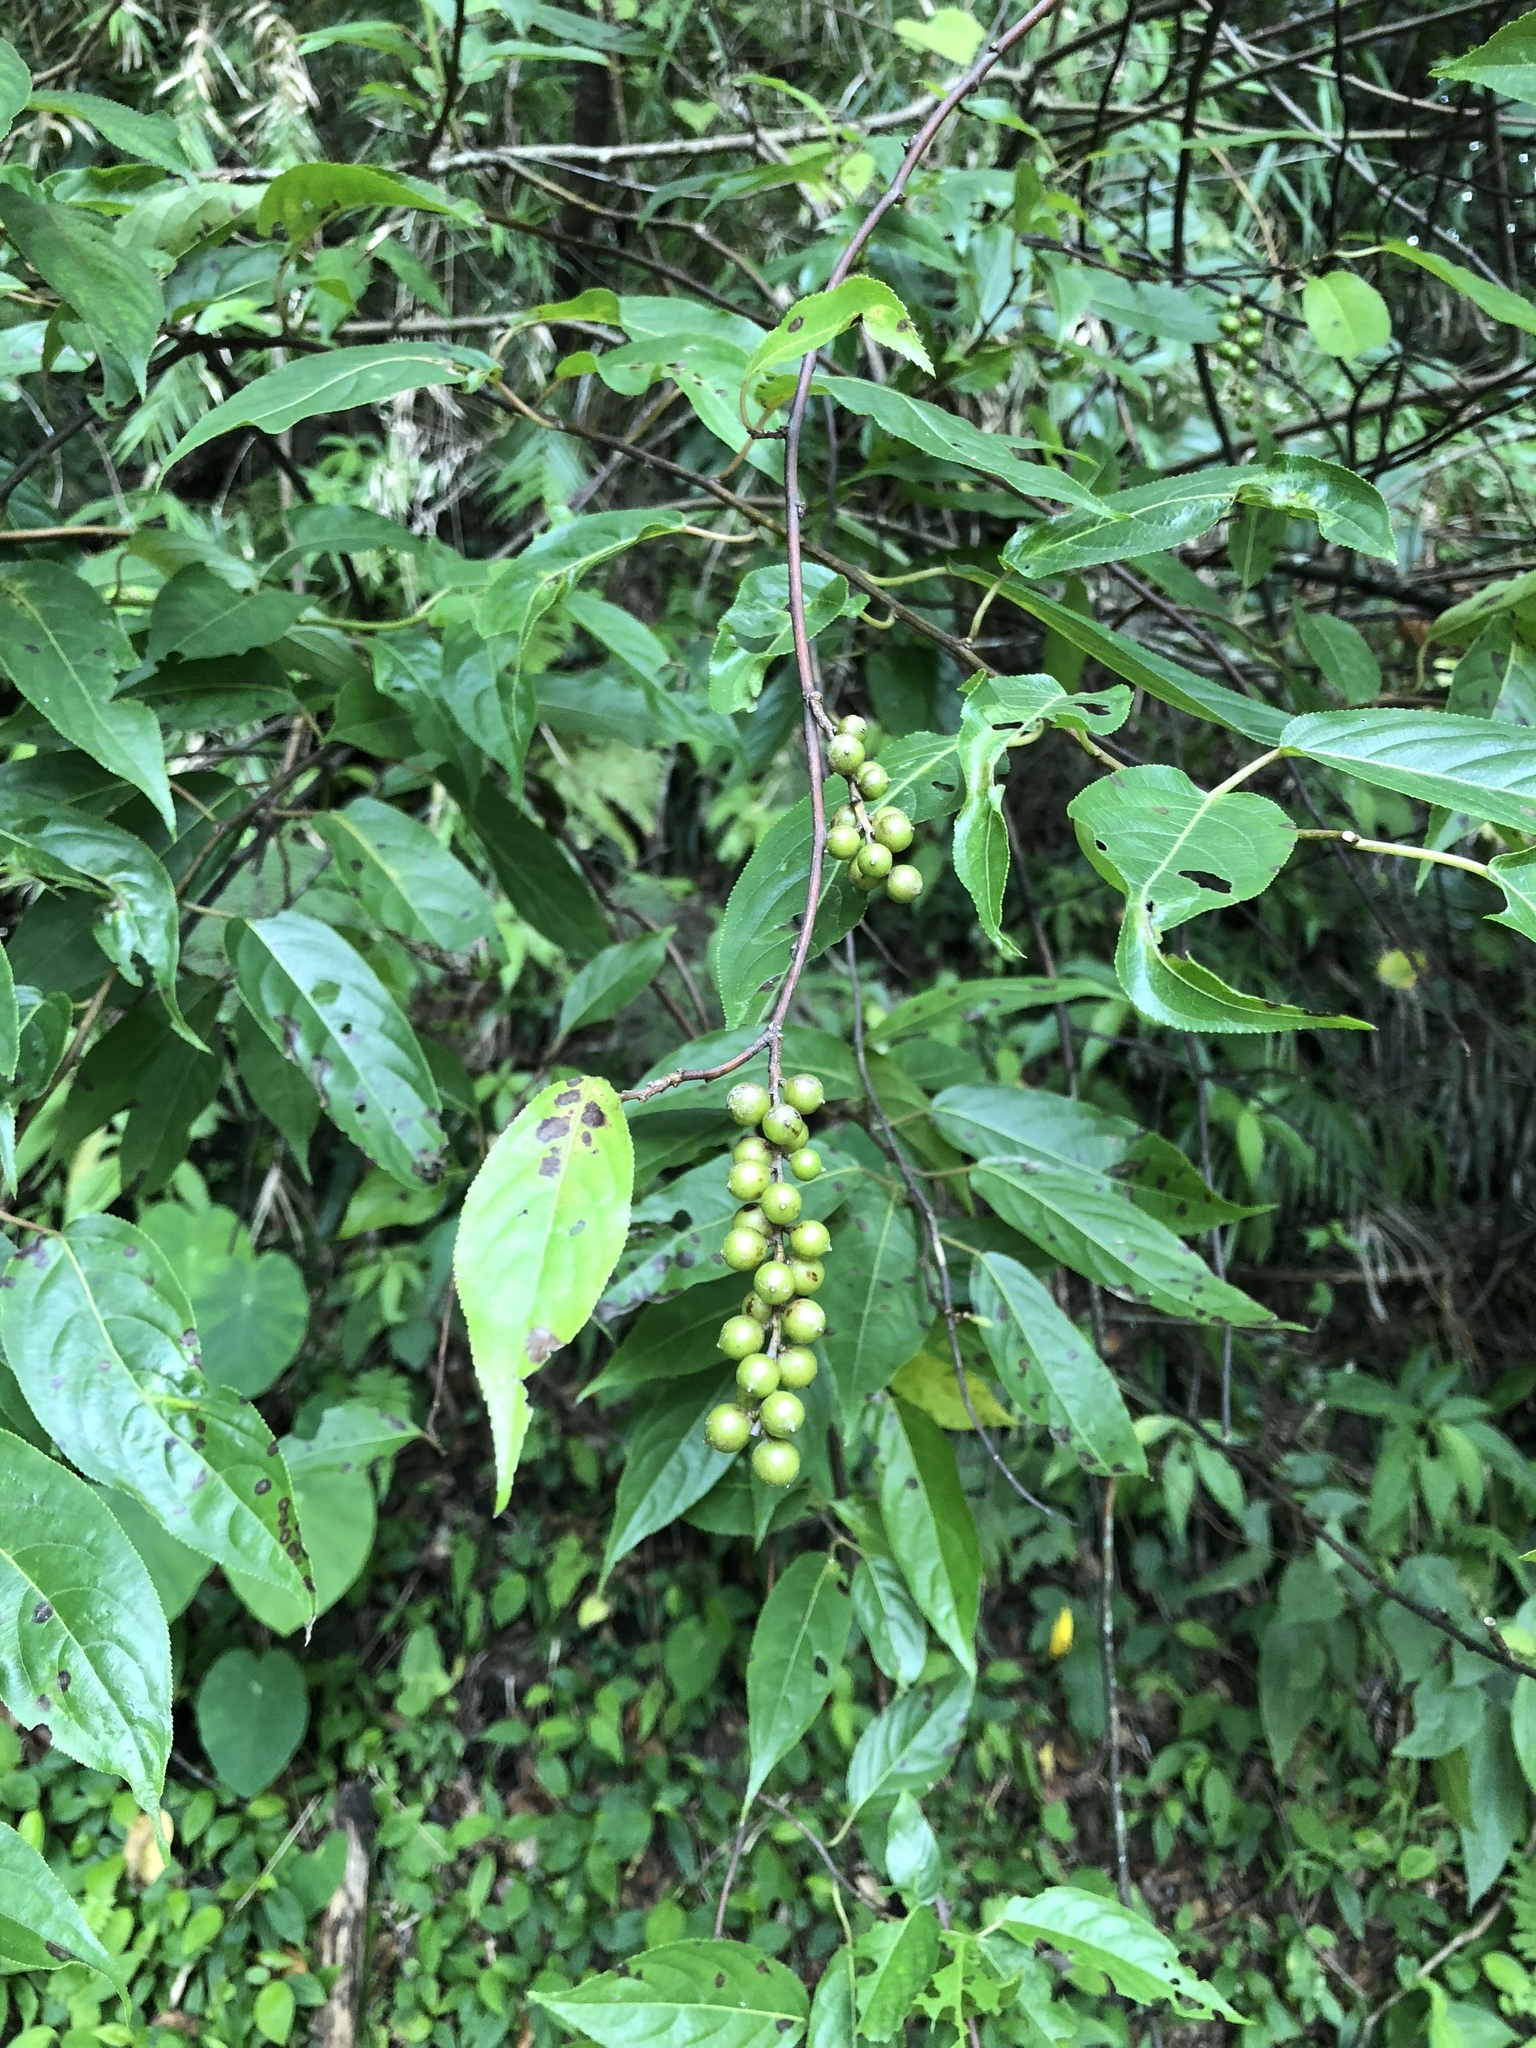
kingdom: Plantae
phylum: Tracheophyta
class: Magnoliopsida
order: Crossosomatales
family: Stachyuraceae
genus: Stachyurus
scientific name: Stachyurus himalaicus
